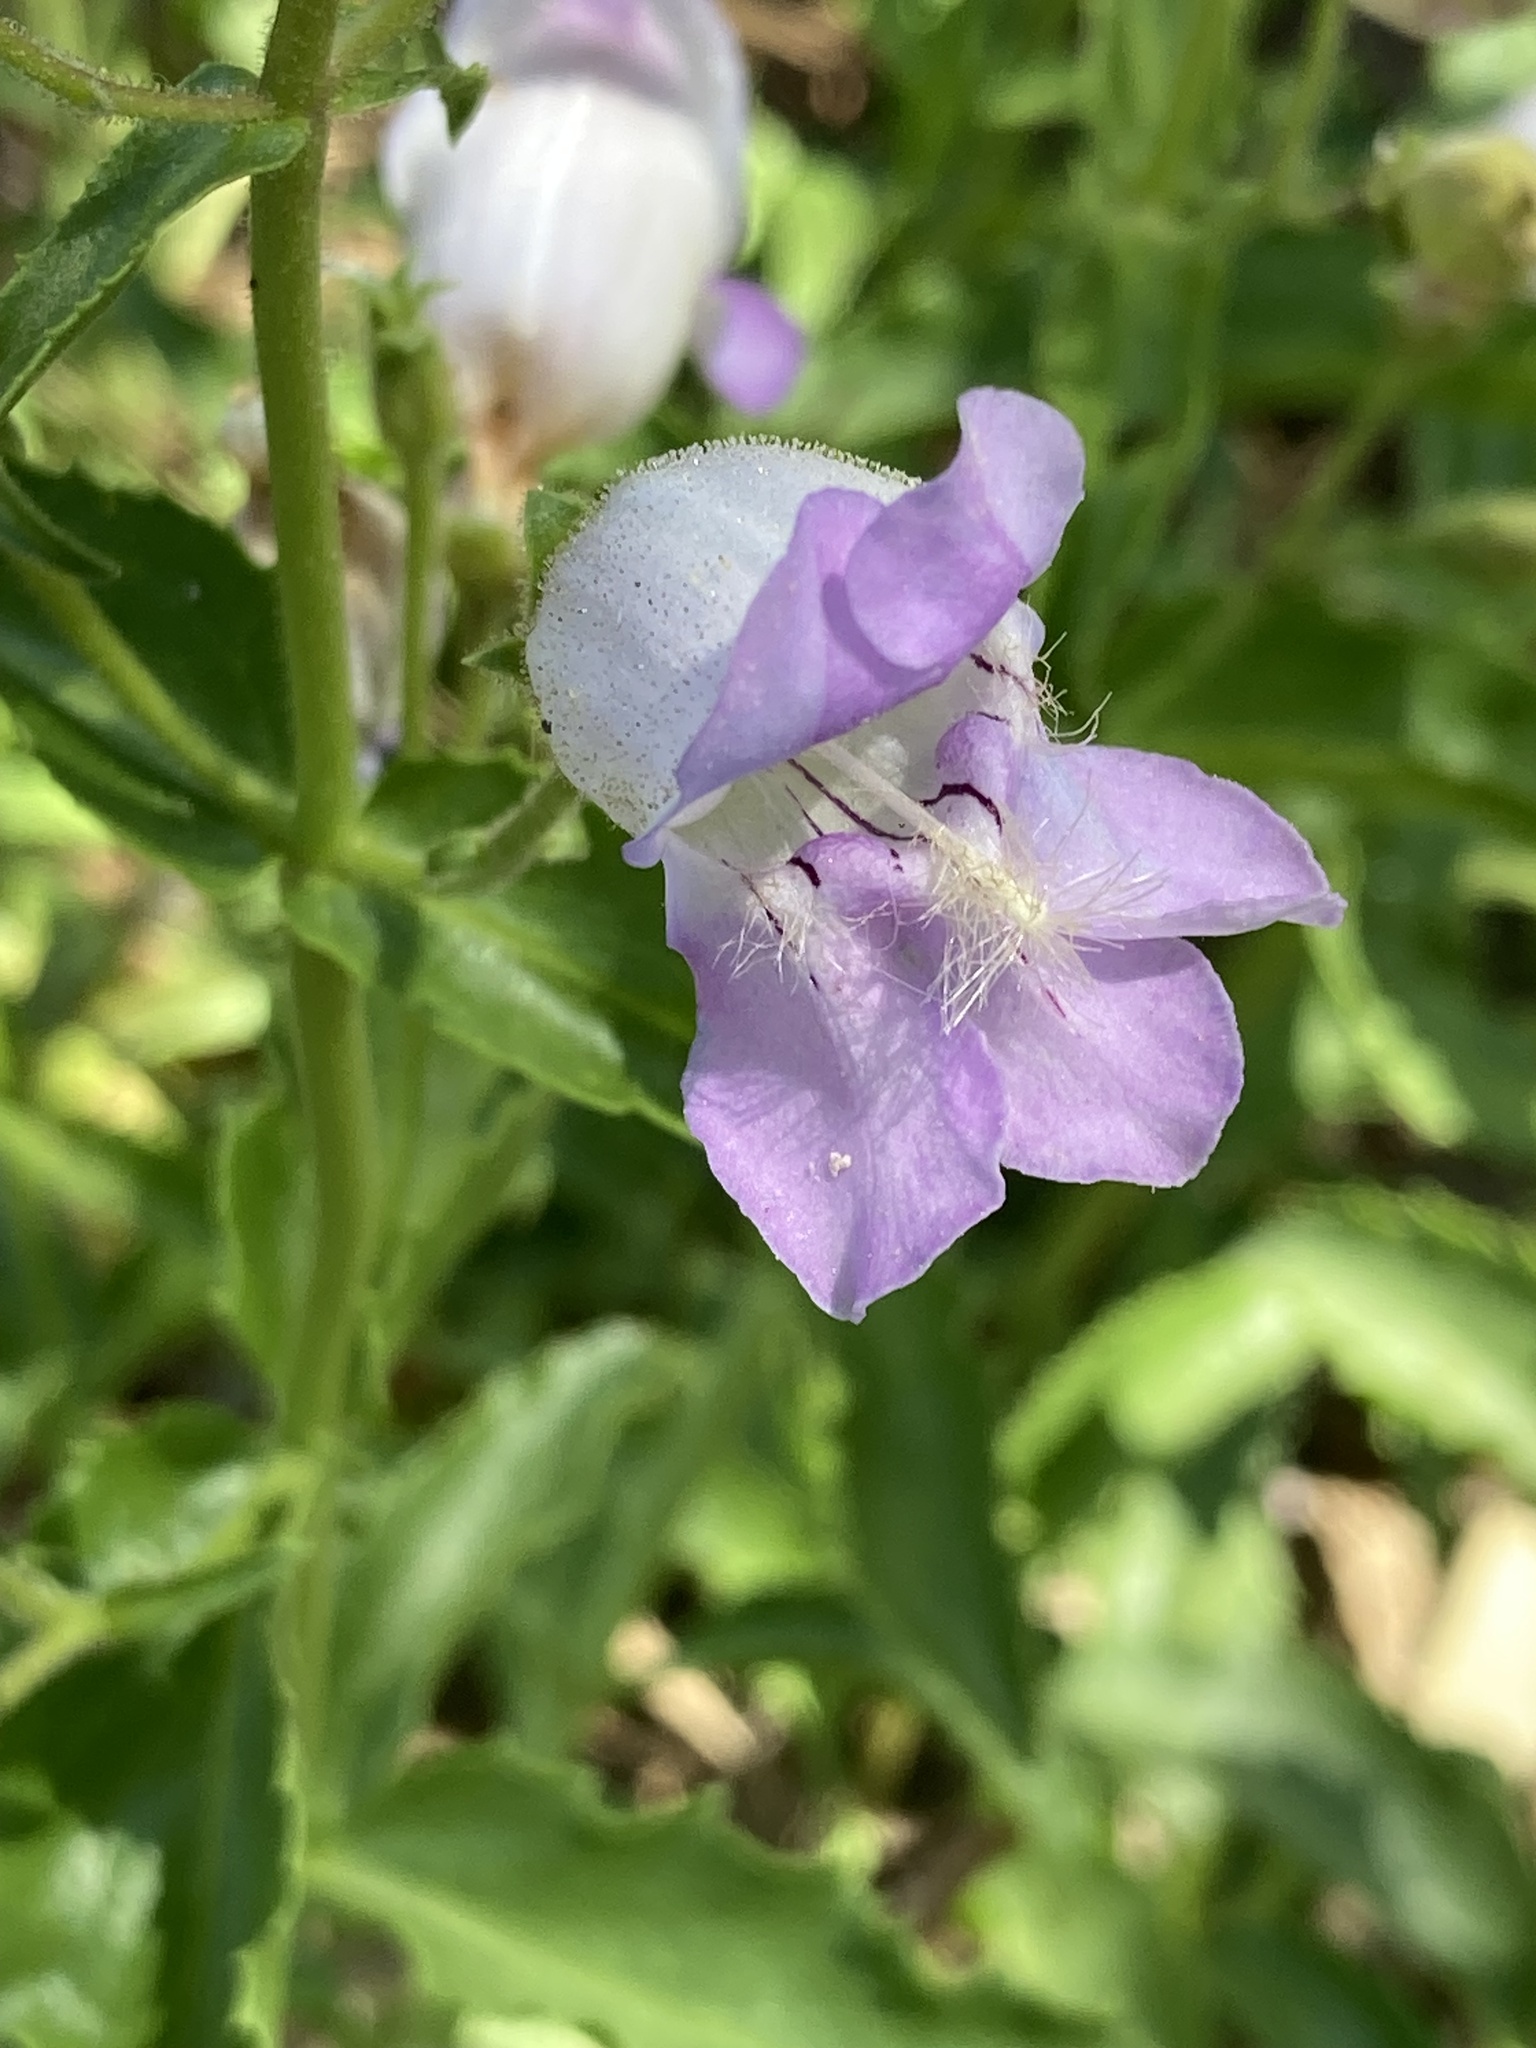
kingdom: Plantae
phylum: Tracheophyta
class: Magnoliopsida
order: Lamiales
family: Plantaginaceae
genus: Penstemon
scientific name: Penstemon grinnellii
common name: Grinnell's beardtongue
